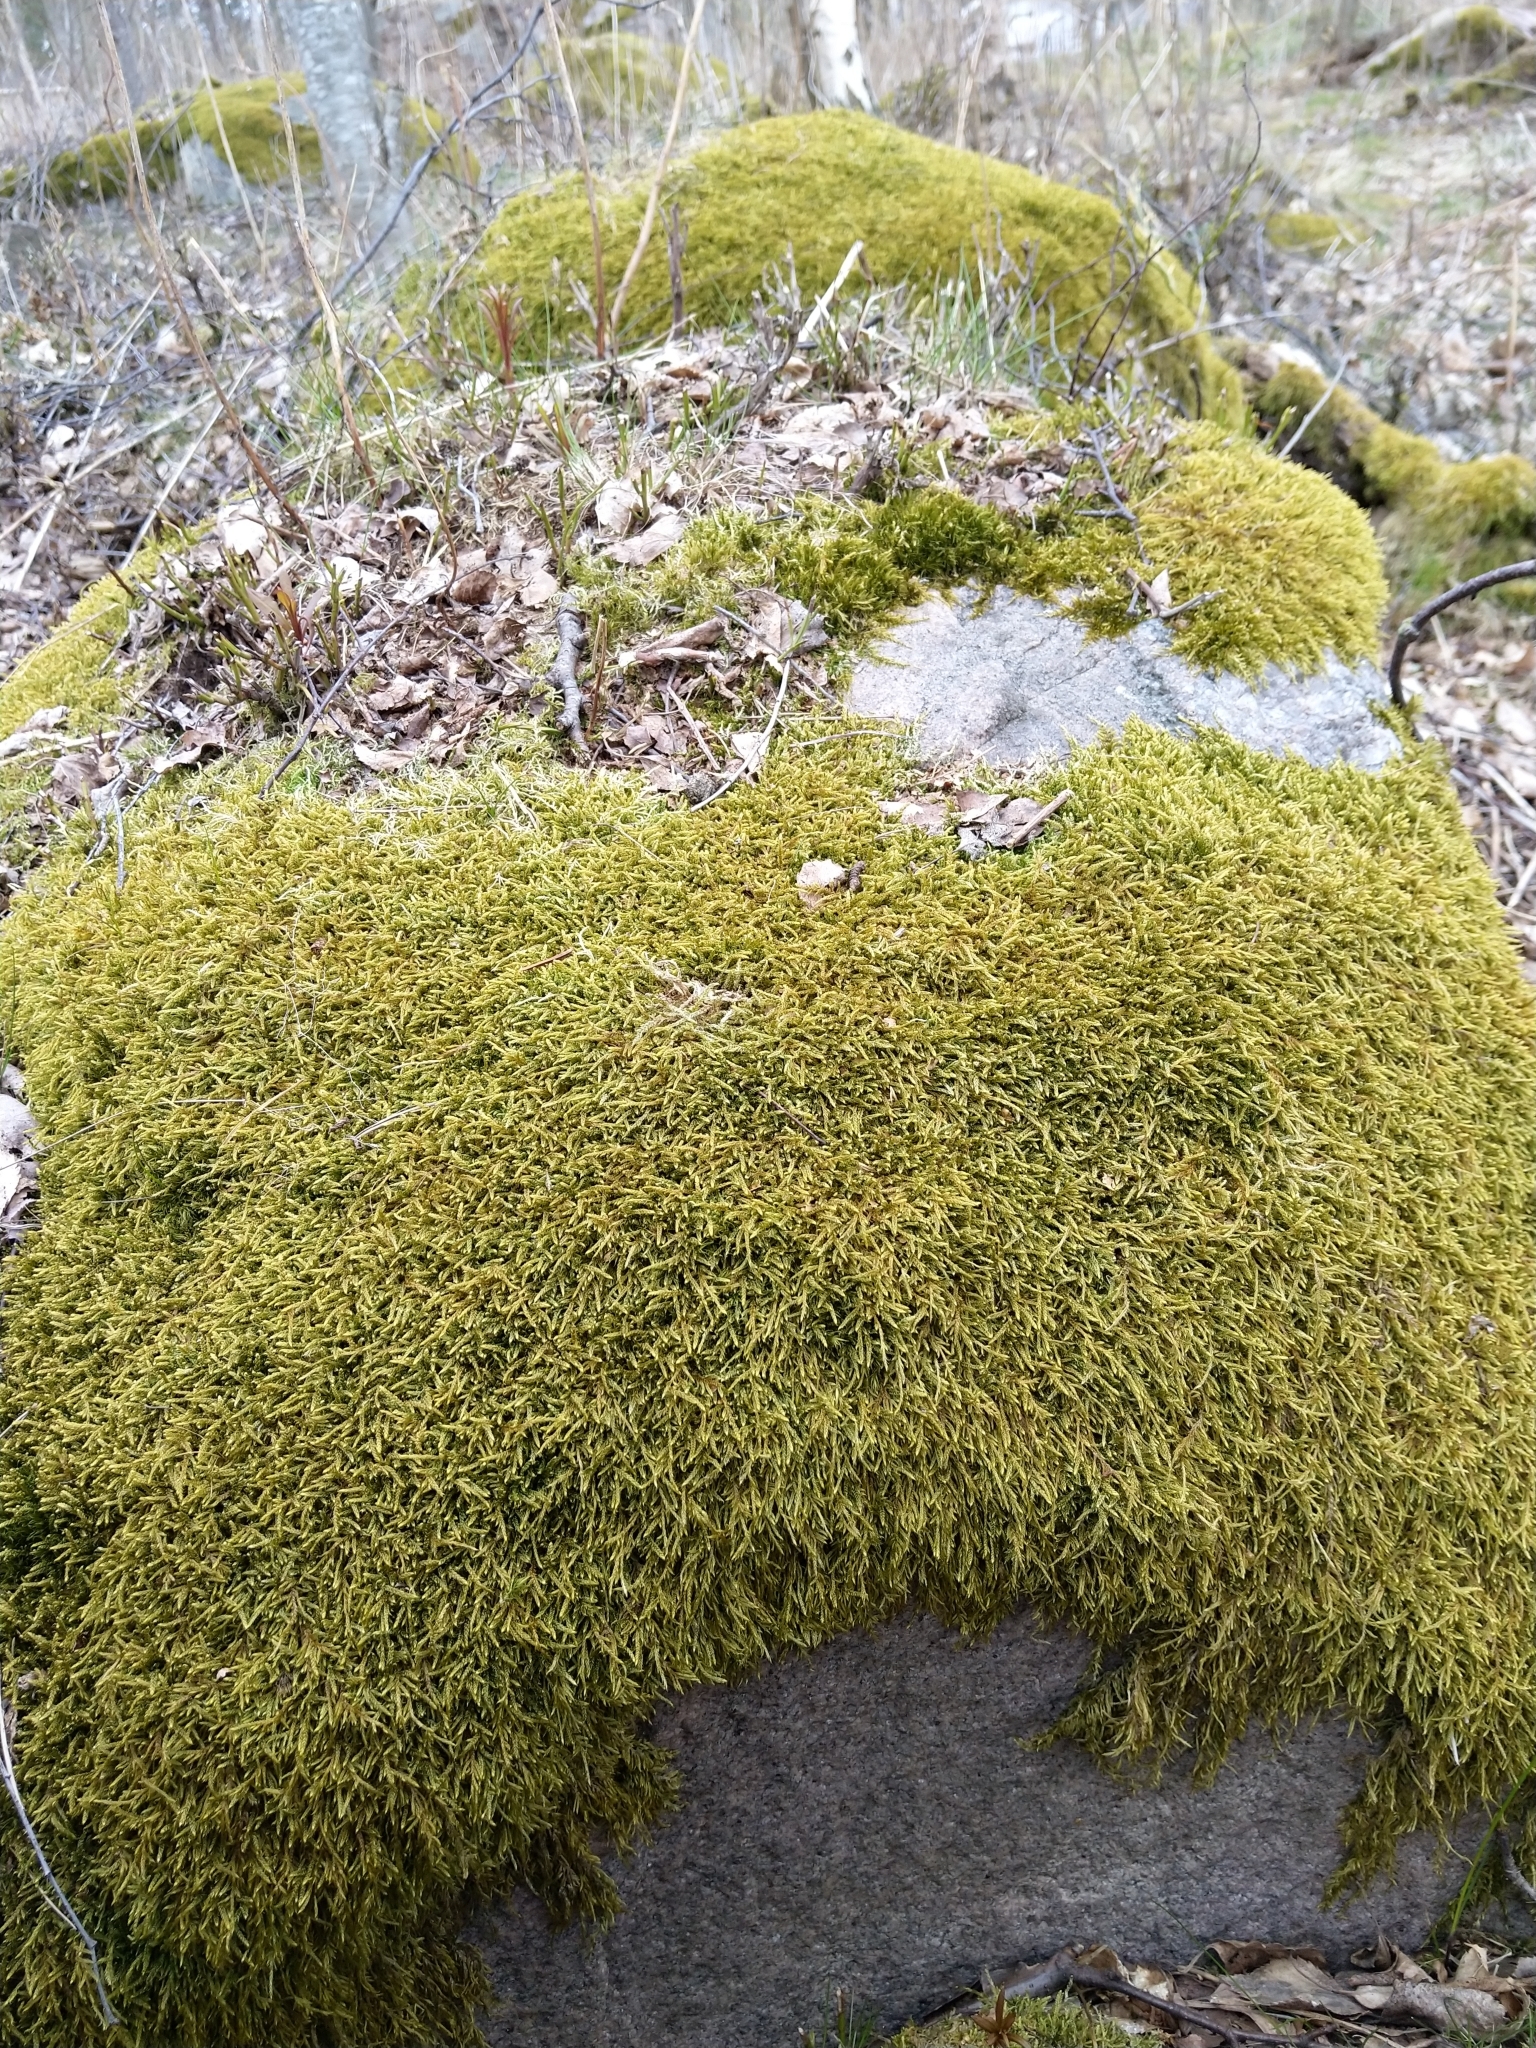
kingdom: Plantae
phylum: Bryophyta
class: Bryopsida
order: Hypnales
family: Hypnaceae
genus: Hypnum
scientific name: Hypnum cupressiforme
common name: Cypress-leaved plait-moss
